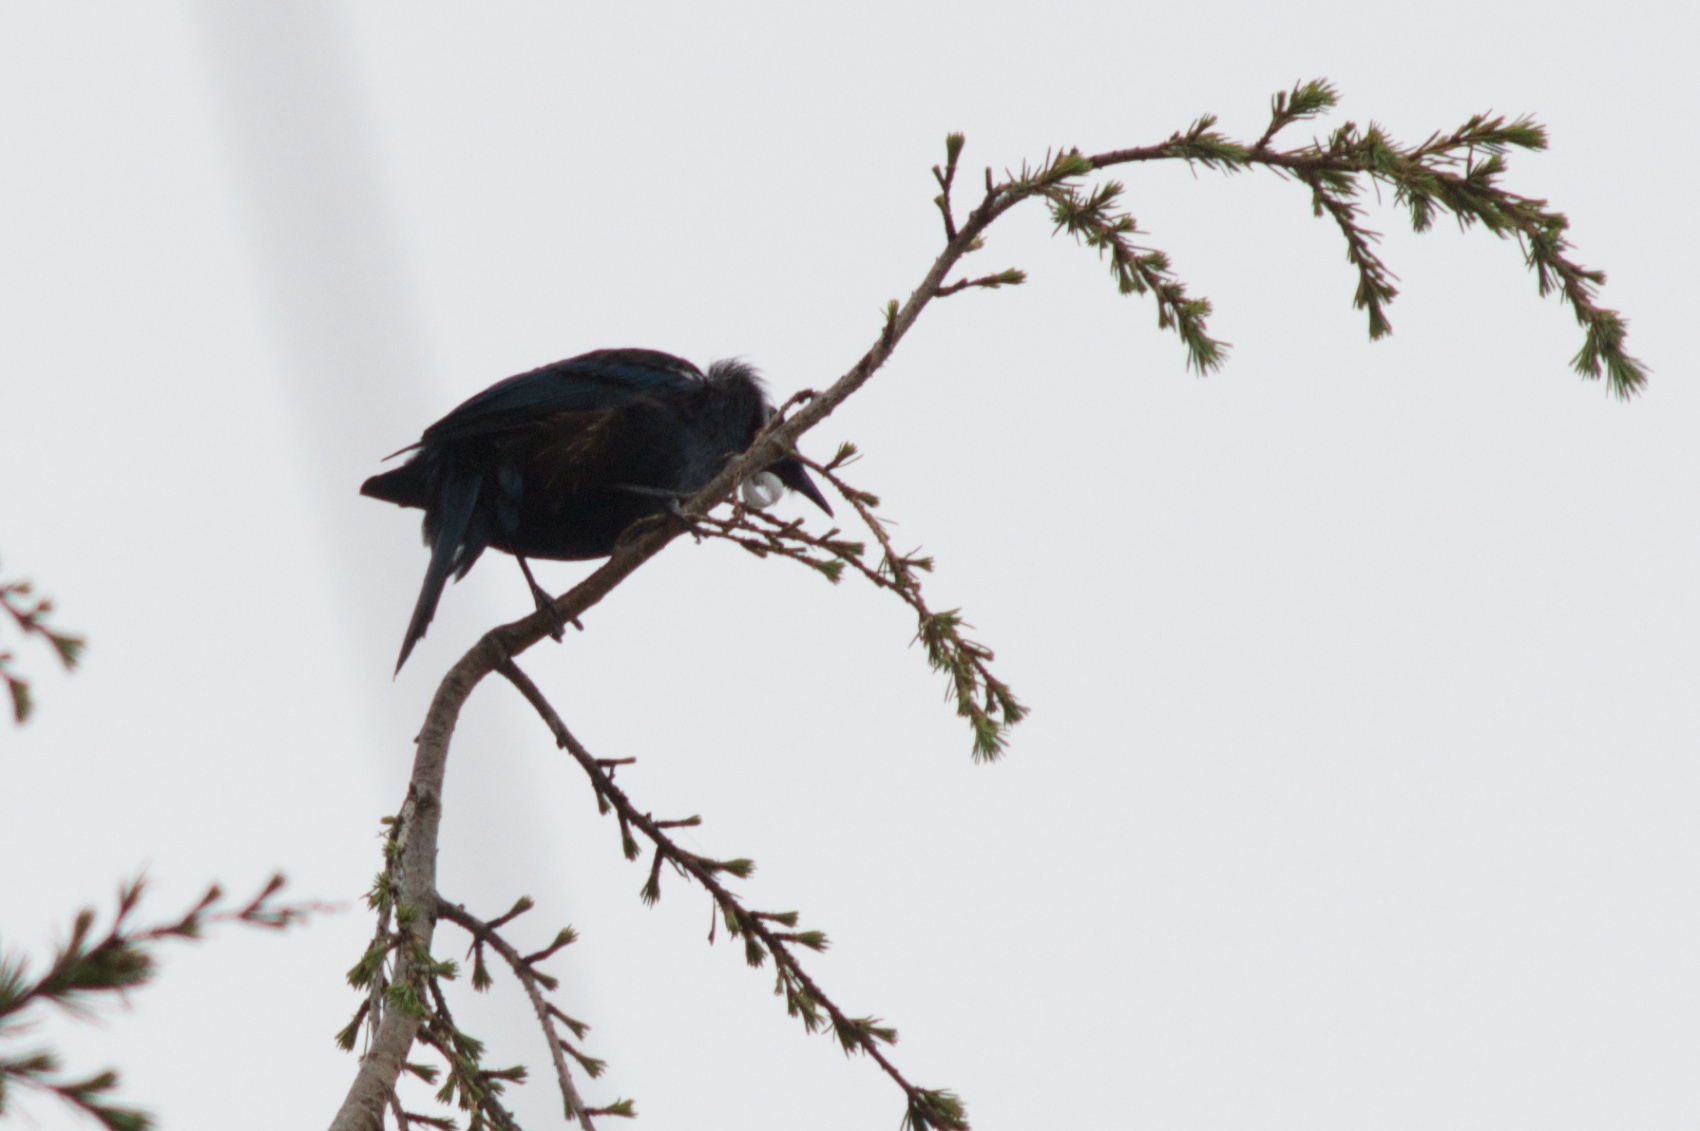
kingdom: Animalia
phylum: Chordata
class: Aves
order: Passeriformes
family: Meliphagidae
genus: Prosthemadera
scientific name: Prosthemadera novaeseelandiae
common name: Tui
